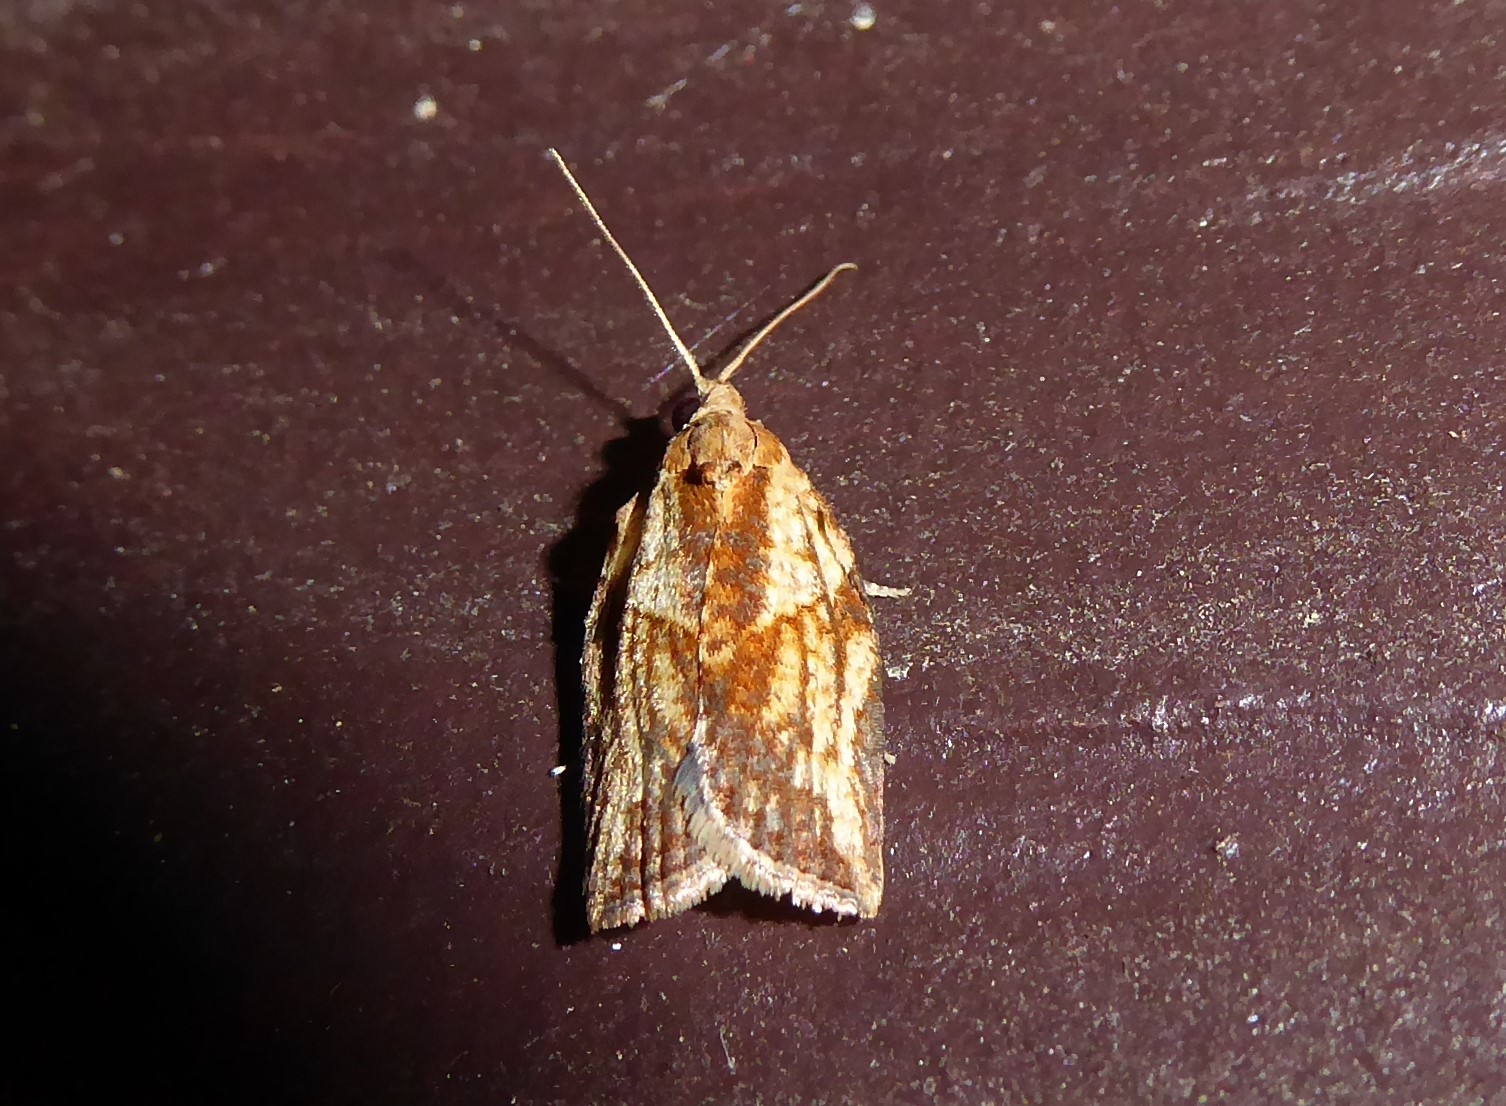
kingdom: Animalia
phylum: Arthropoda
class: Insecta
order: Lepidoptera
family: Tortricidae
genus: Epiphyas
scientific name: Epiphyas postvittana
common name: Light brown apple moth
